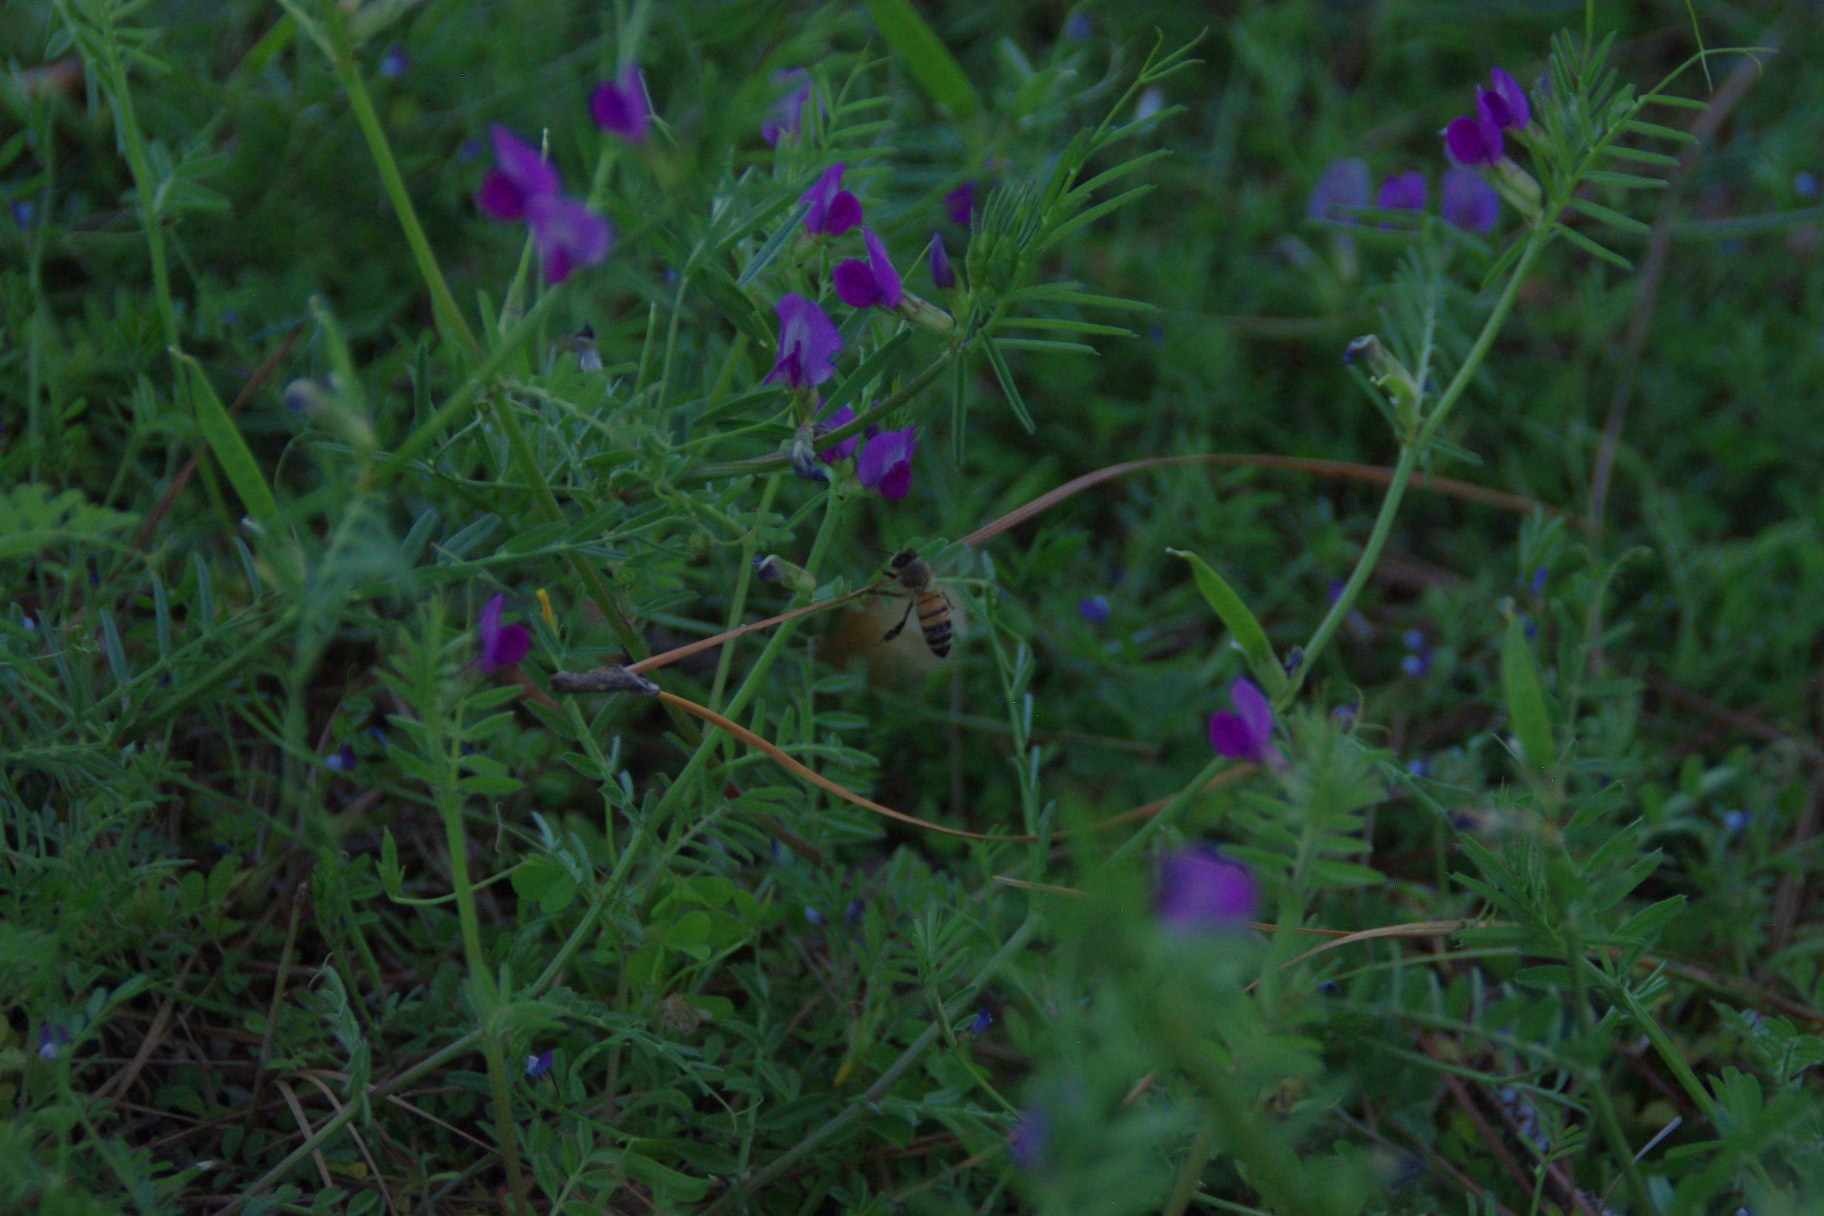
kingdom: Animalia
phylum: Arthropoda
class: Insecta
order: Hymenoptera
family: Apidae
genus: Apis
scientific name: Apis mellifera
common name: Honey bee
